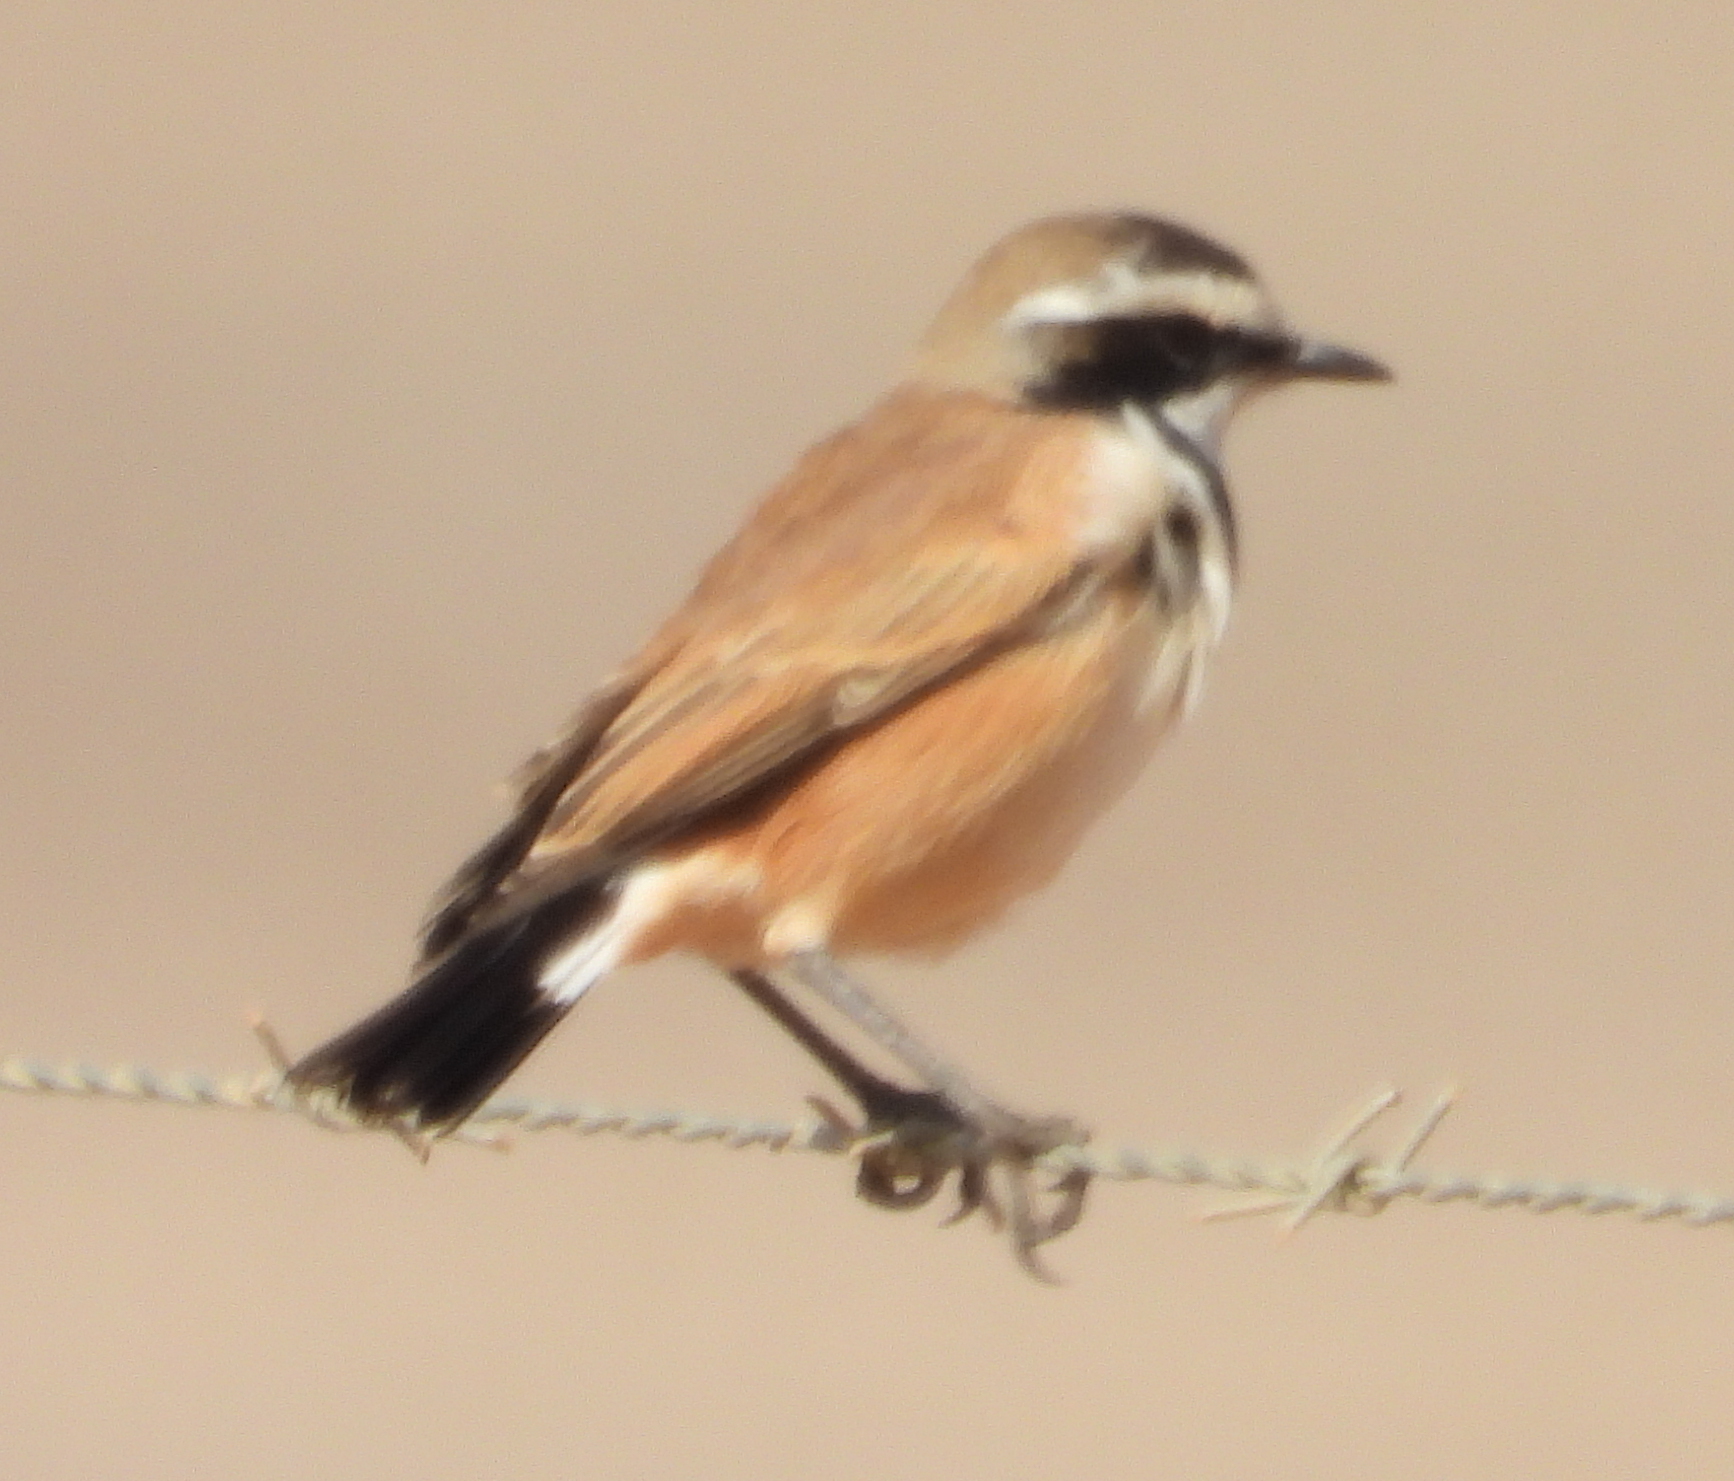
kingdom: Animalia
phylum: Chordata
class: Aves
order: Passeriformes
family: Muscicapidae
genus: Oenanthe
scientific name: Oenanthe pileata
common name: Capped wheatear
